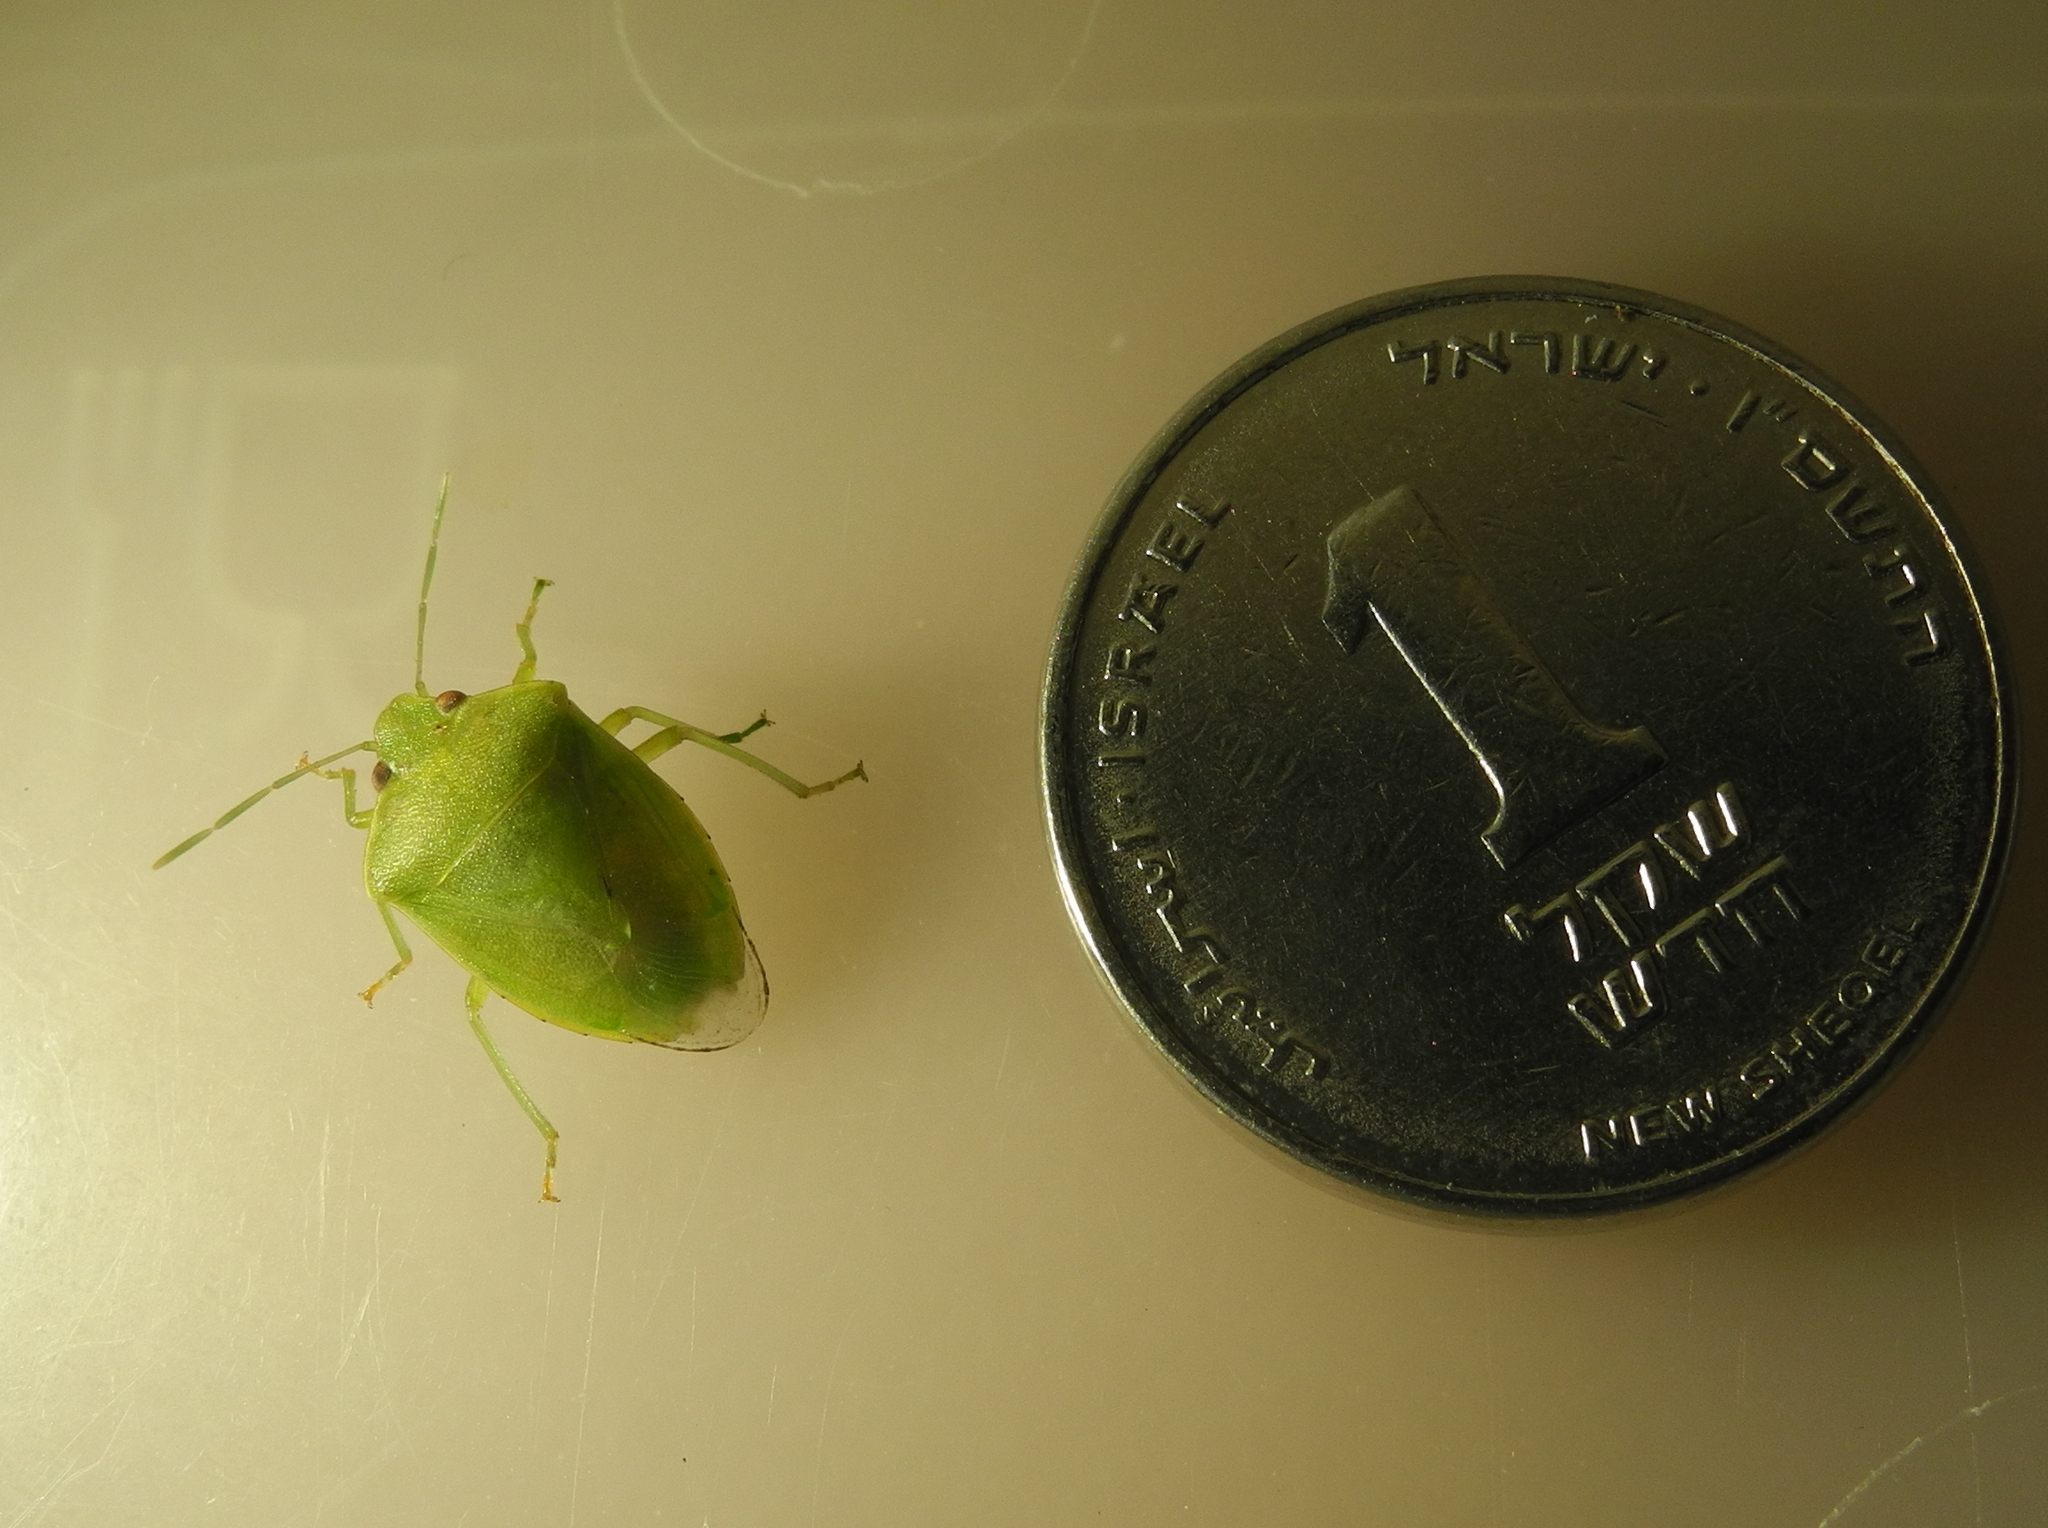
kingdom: Animalia
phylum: Arthropoda
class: Insecta
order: Hemiptera
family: Pentatomidae
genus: Acrosternum
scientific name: Acrosternum millierei
